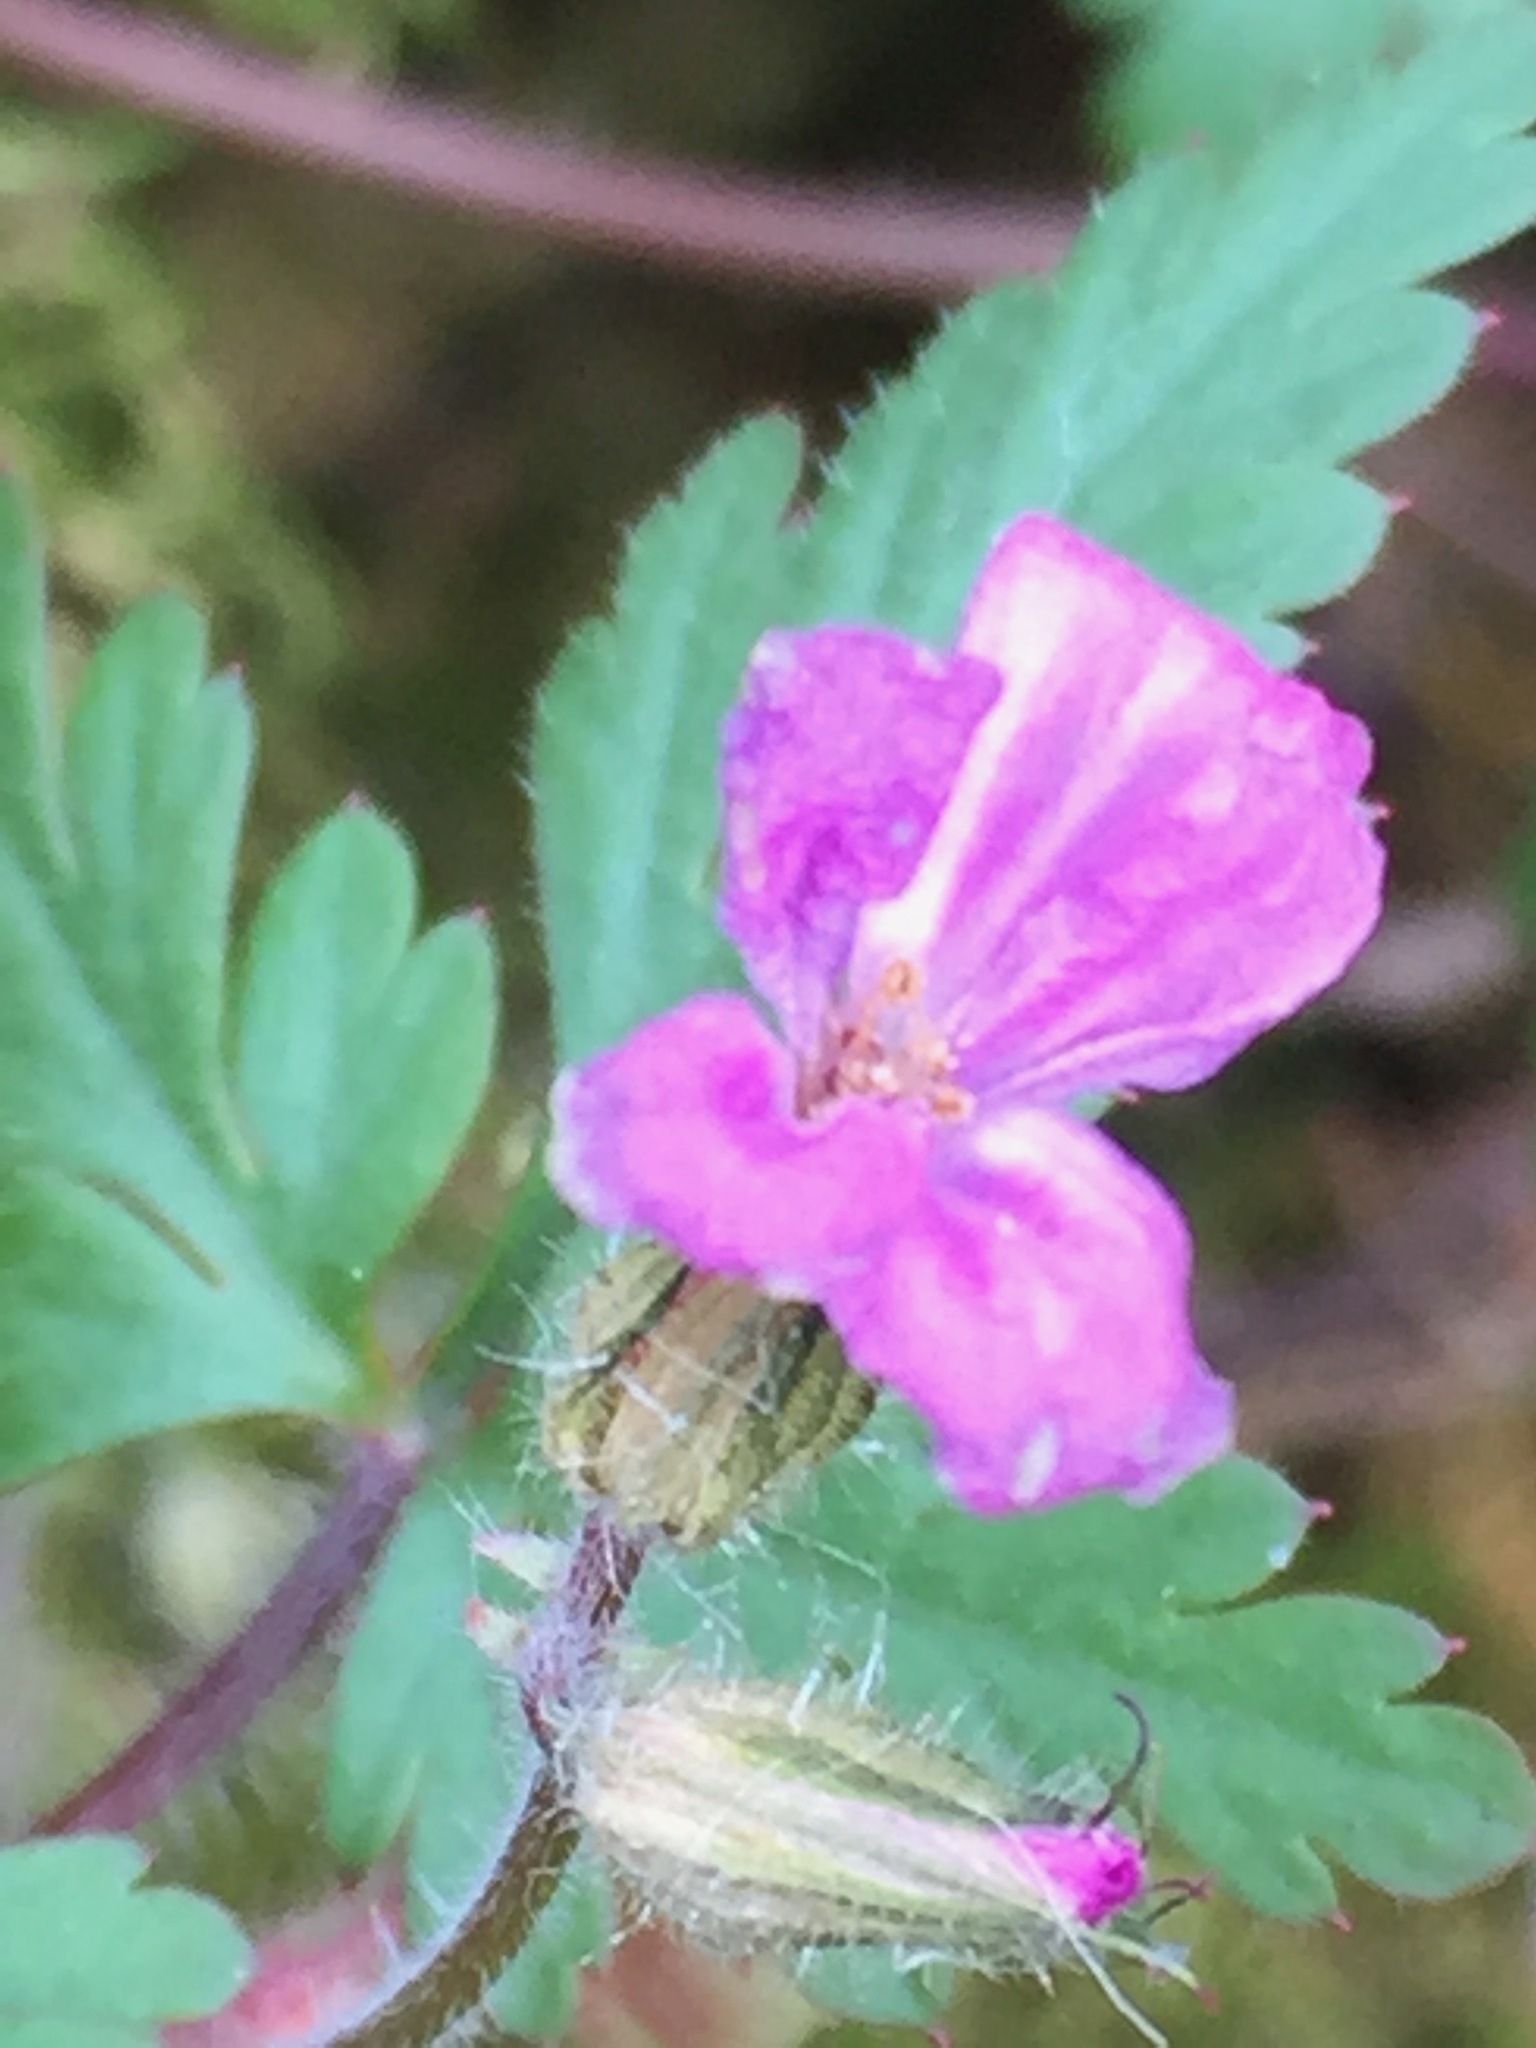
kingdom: Plantae
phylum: Tracheophyta
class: Magnoliopsida
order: Geraniales
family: Geraniaceae
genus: Geranium
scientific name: Geranium robertianum
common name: Herb-robert
